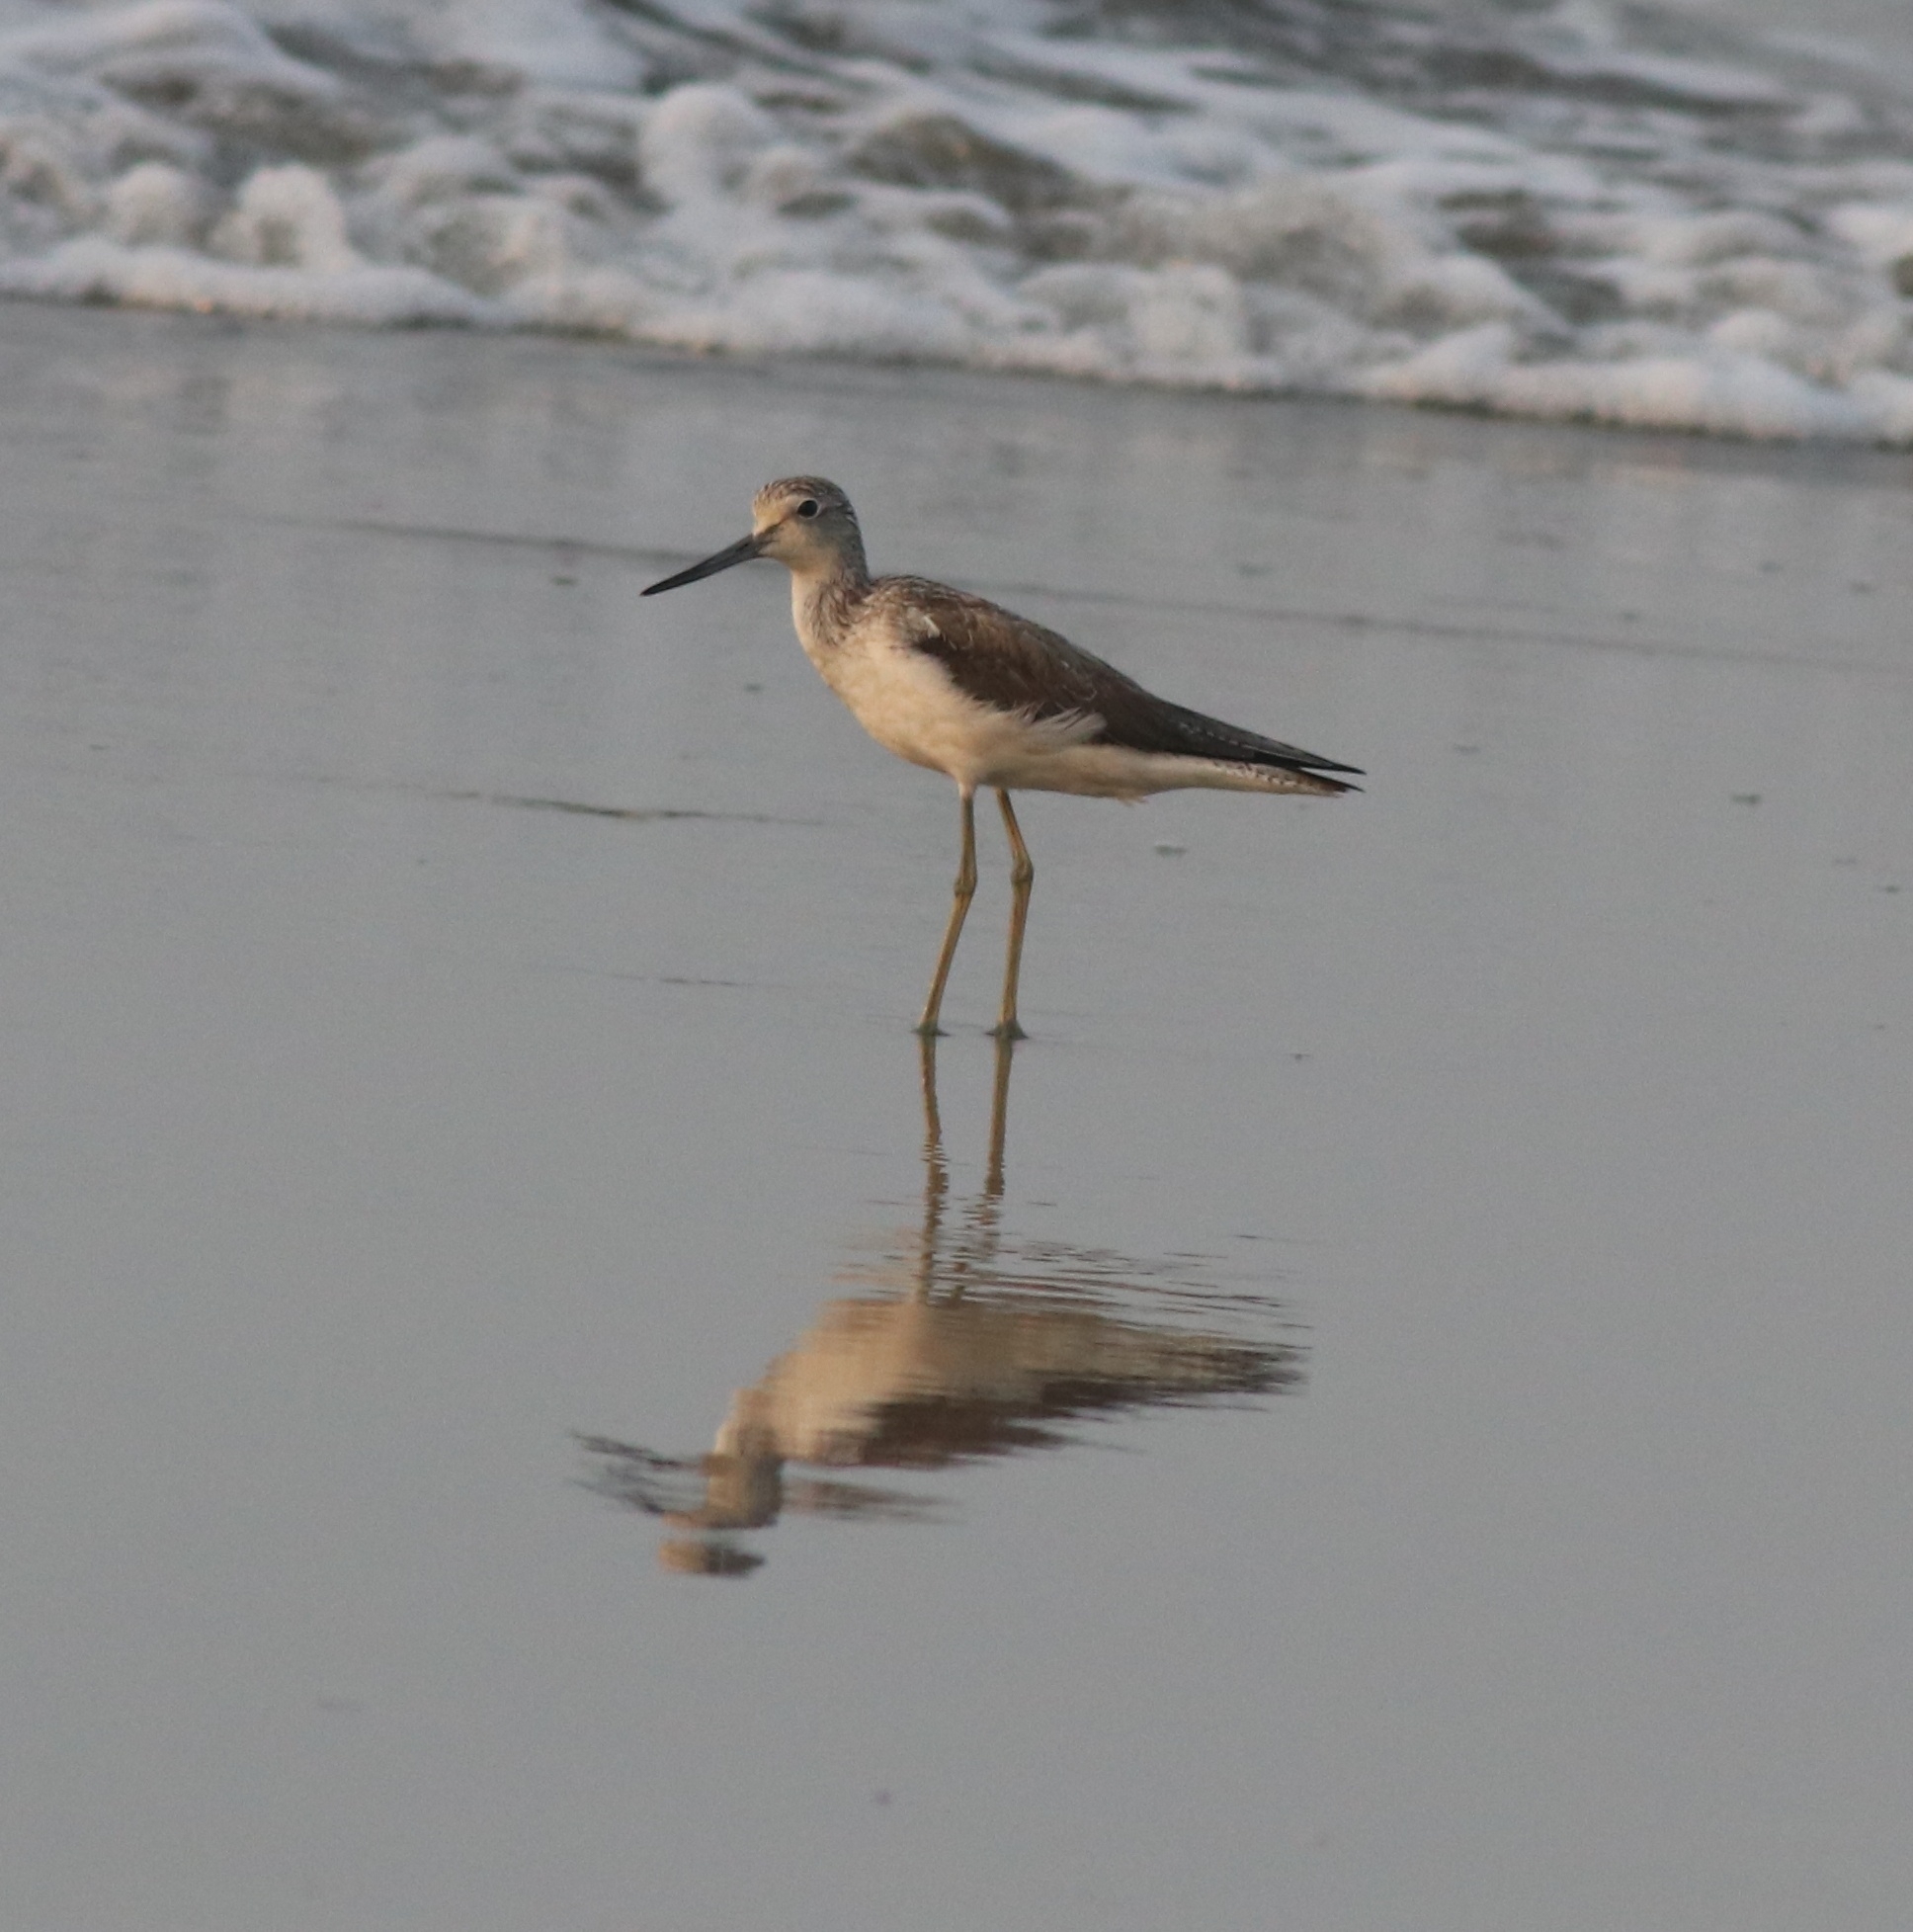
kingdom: Animalia
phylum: Chordata
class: Aves
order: Charadriiformes
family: Scolopacidae
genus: Tringa
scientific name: Tringa nebularia
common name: Common greenshank
